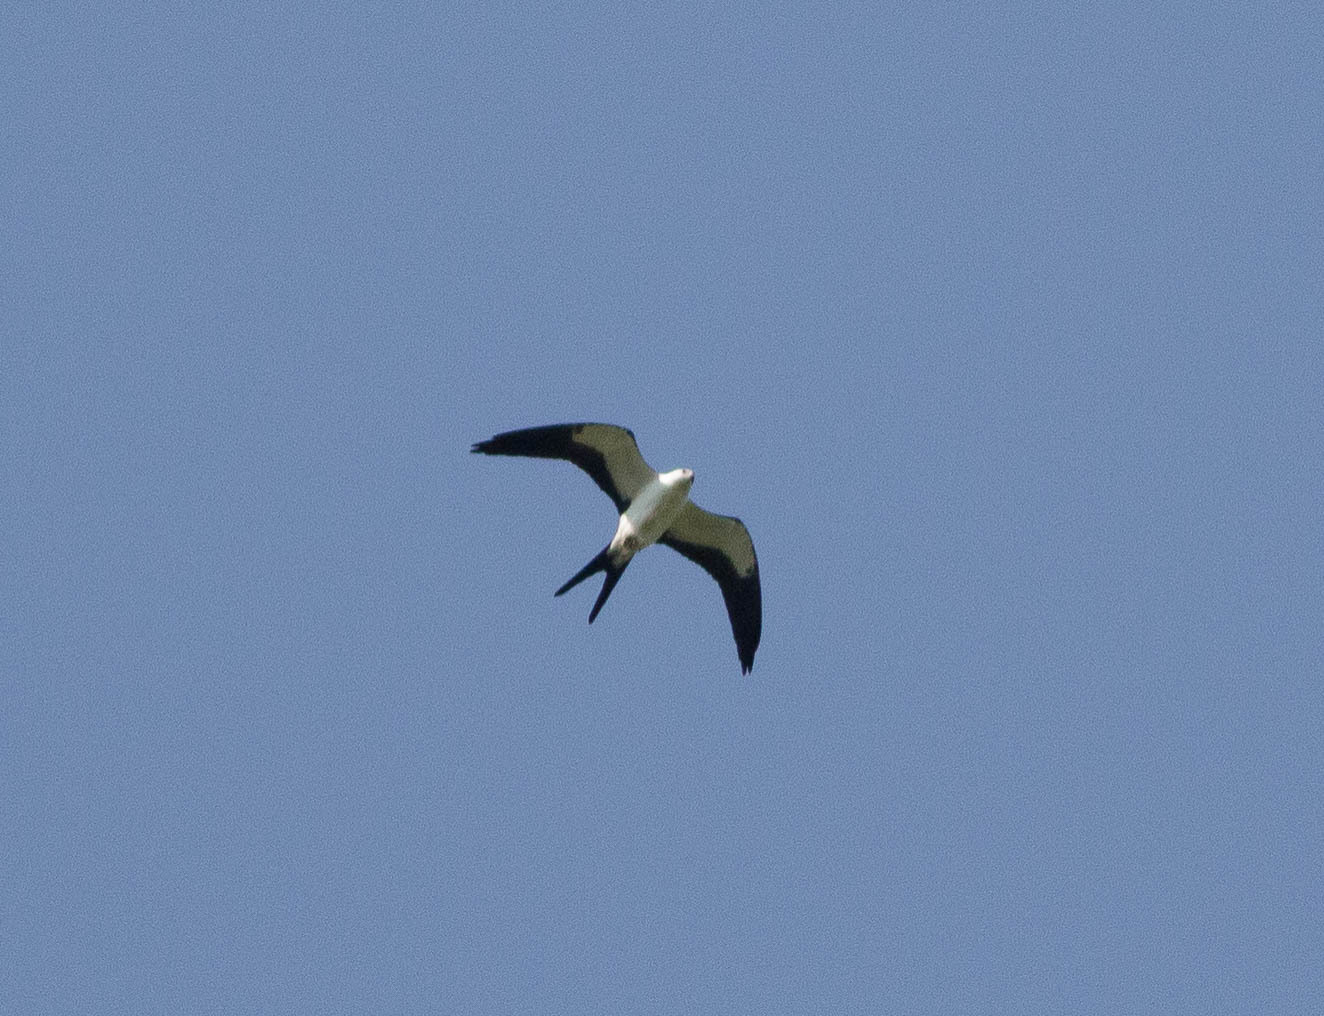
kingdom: Animalia
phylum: Chordata
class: Aves
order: Accipitriformes
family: Accipitridae
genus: Elanoides
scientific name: Elanoides forficatus
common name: Swallow-tailed kite
